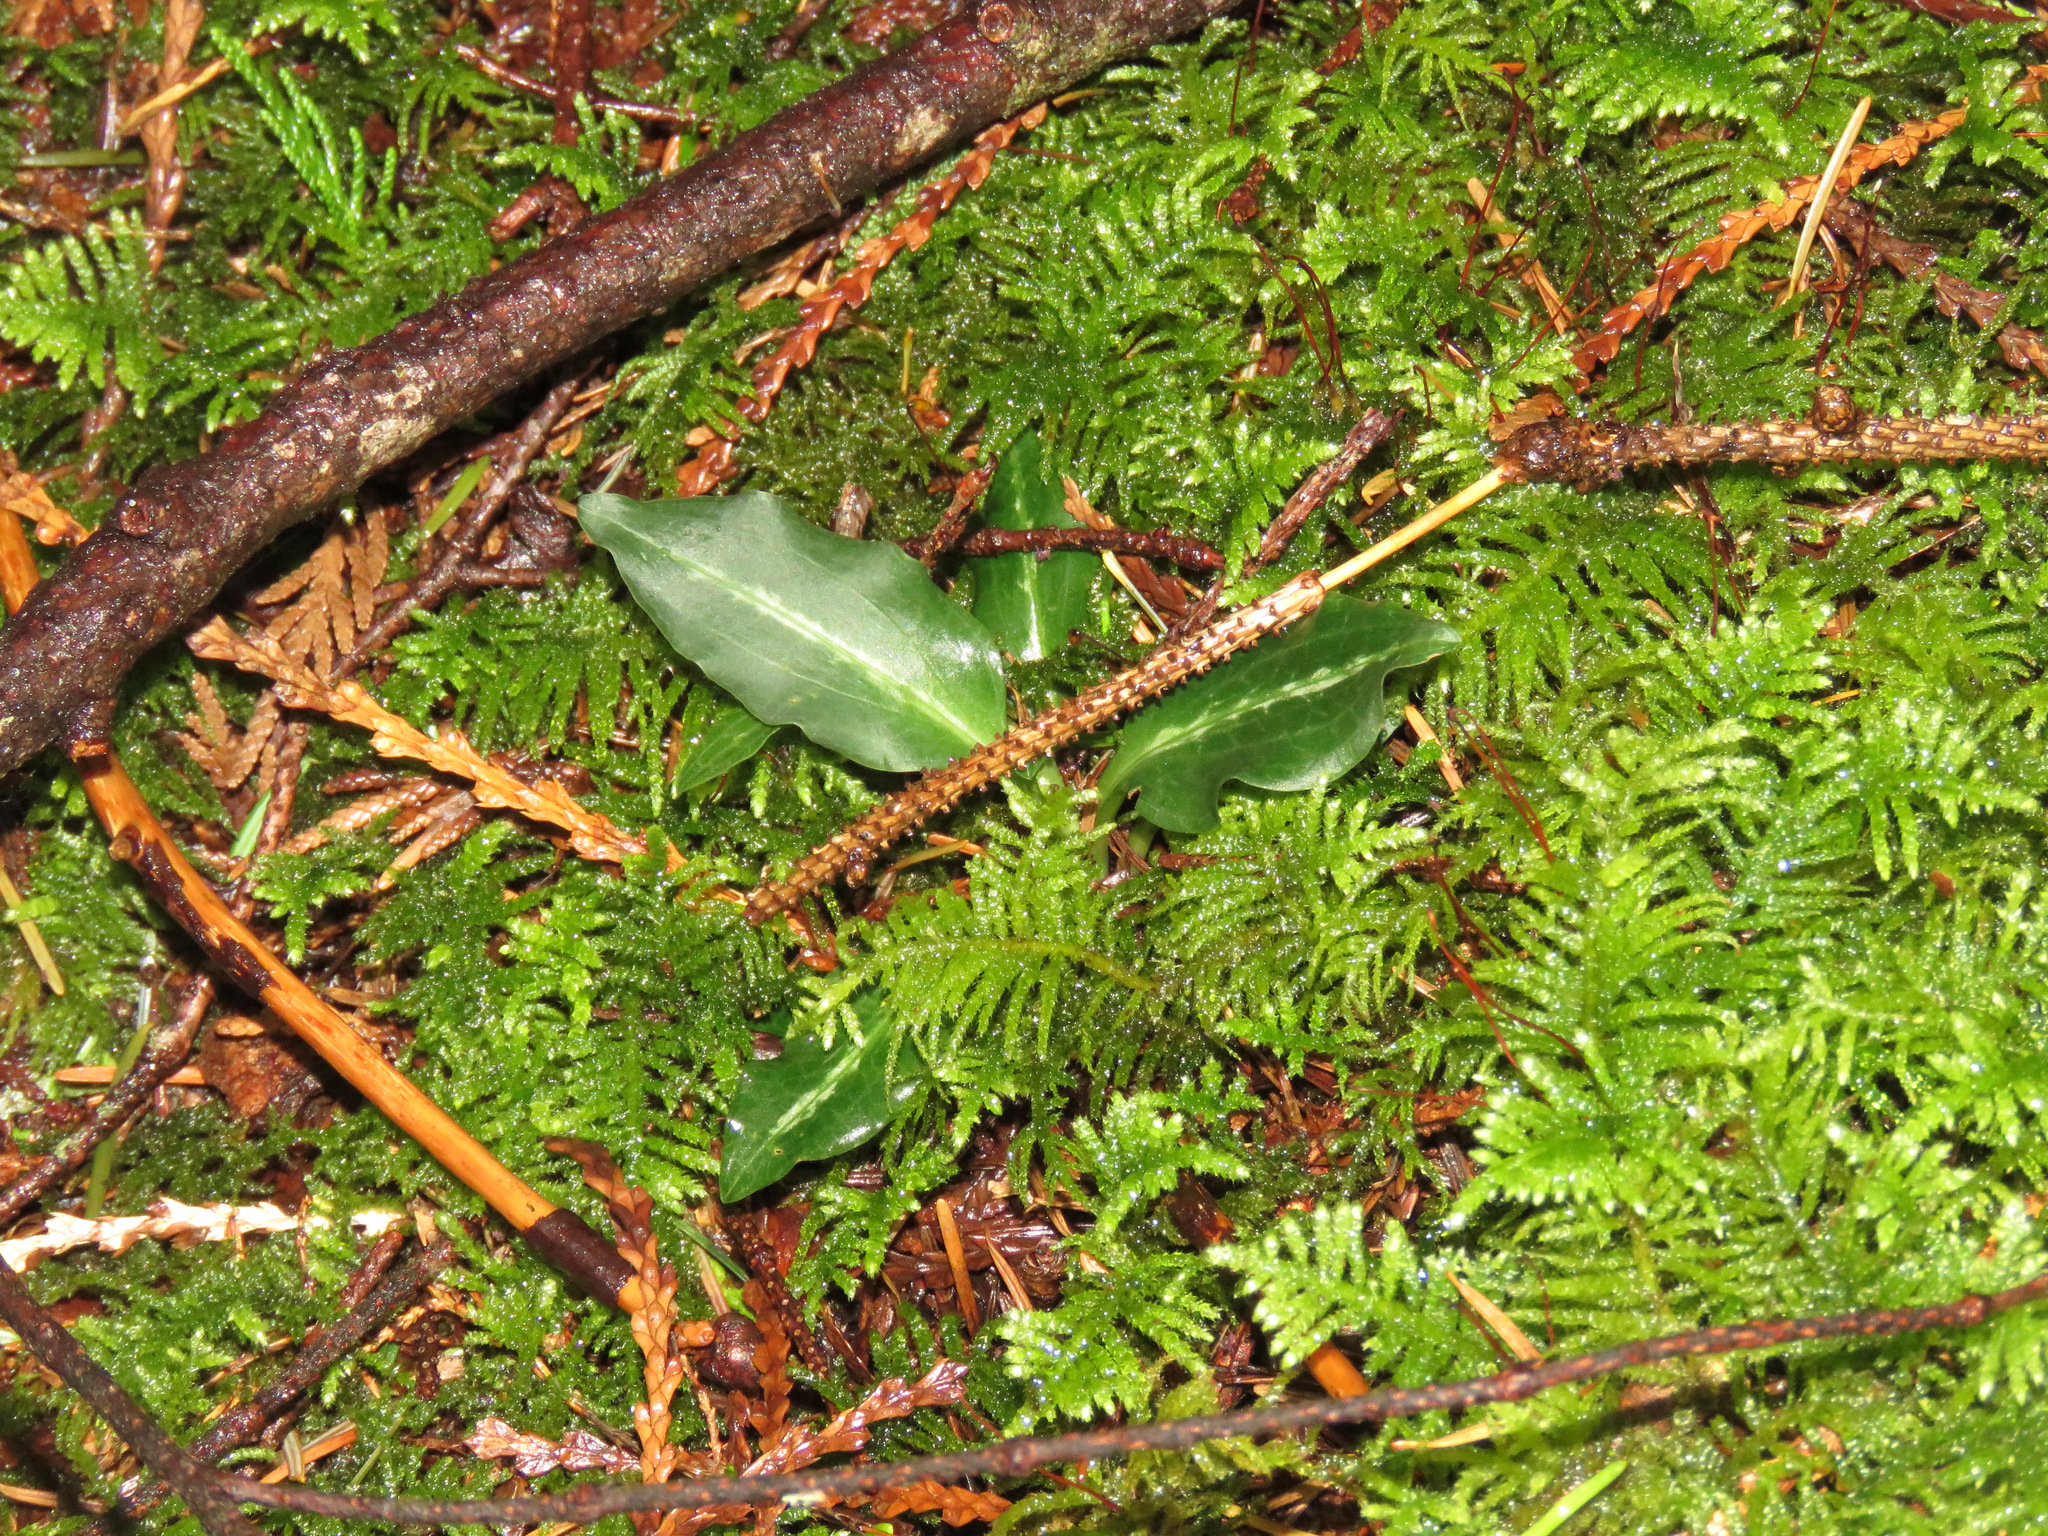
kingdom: Plantae
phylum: Tracheophyta
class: Liliopsida
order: Asparagales
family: Orchidaceae
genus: Goodyera
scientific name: Goodyera oblongifolia
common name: Giant rattlesnake-plantain
